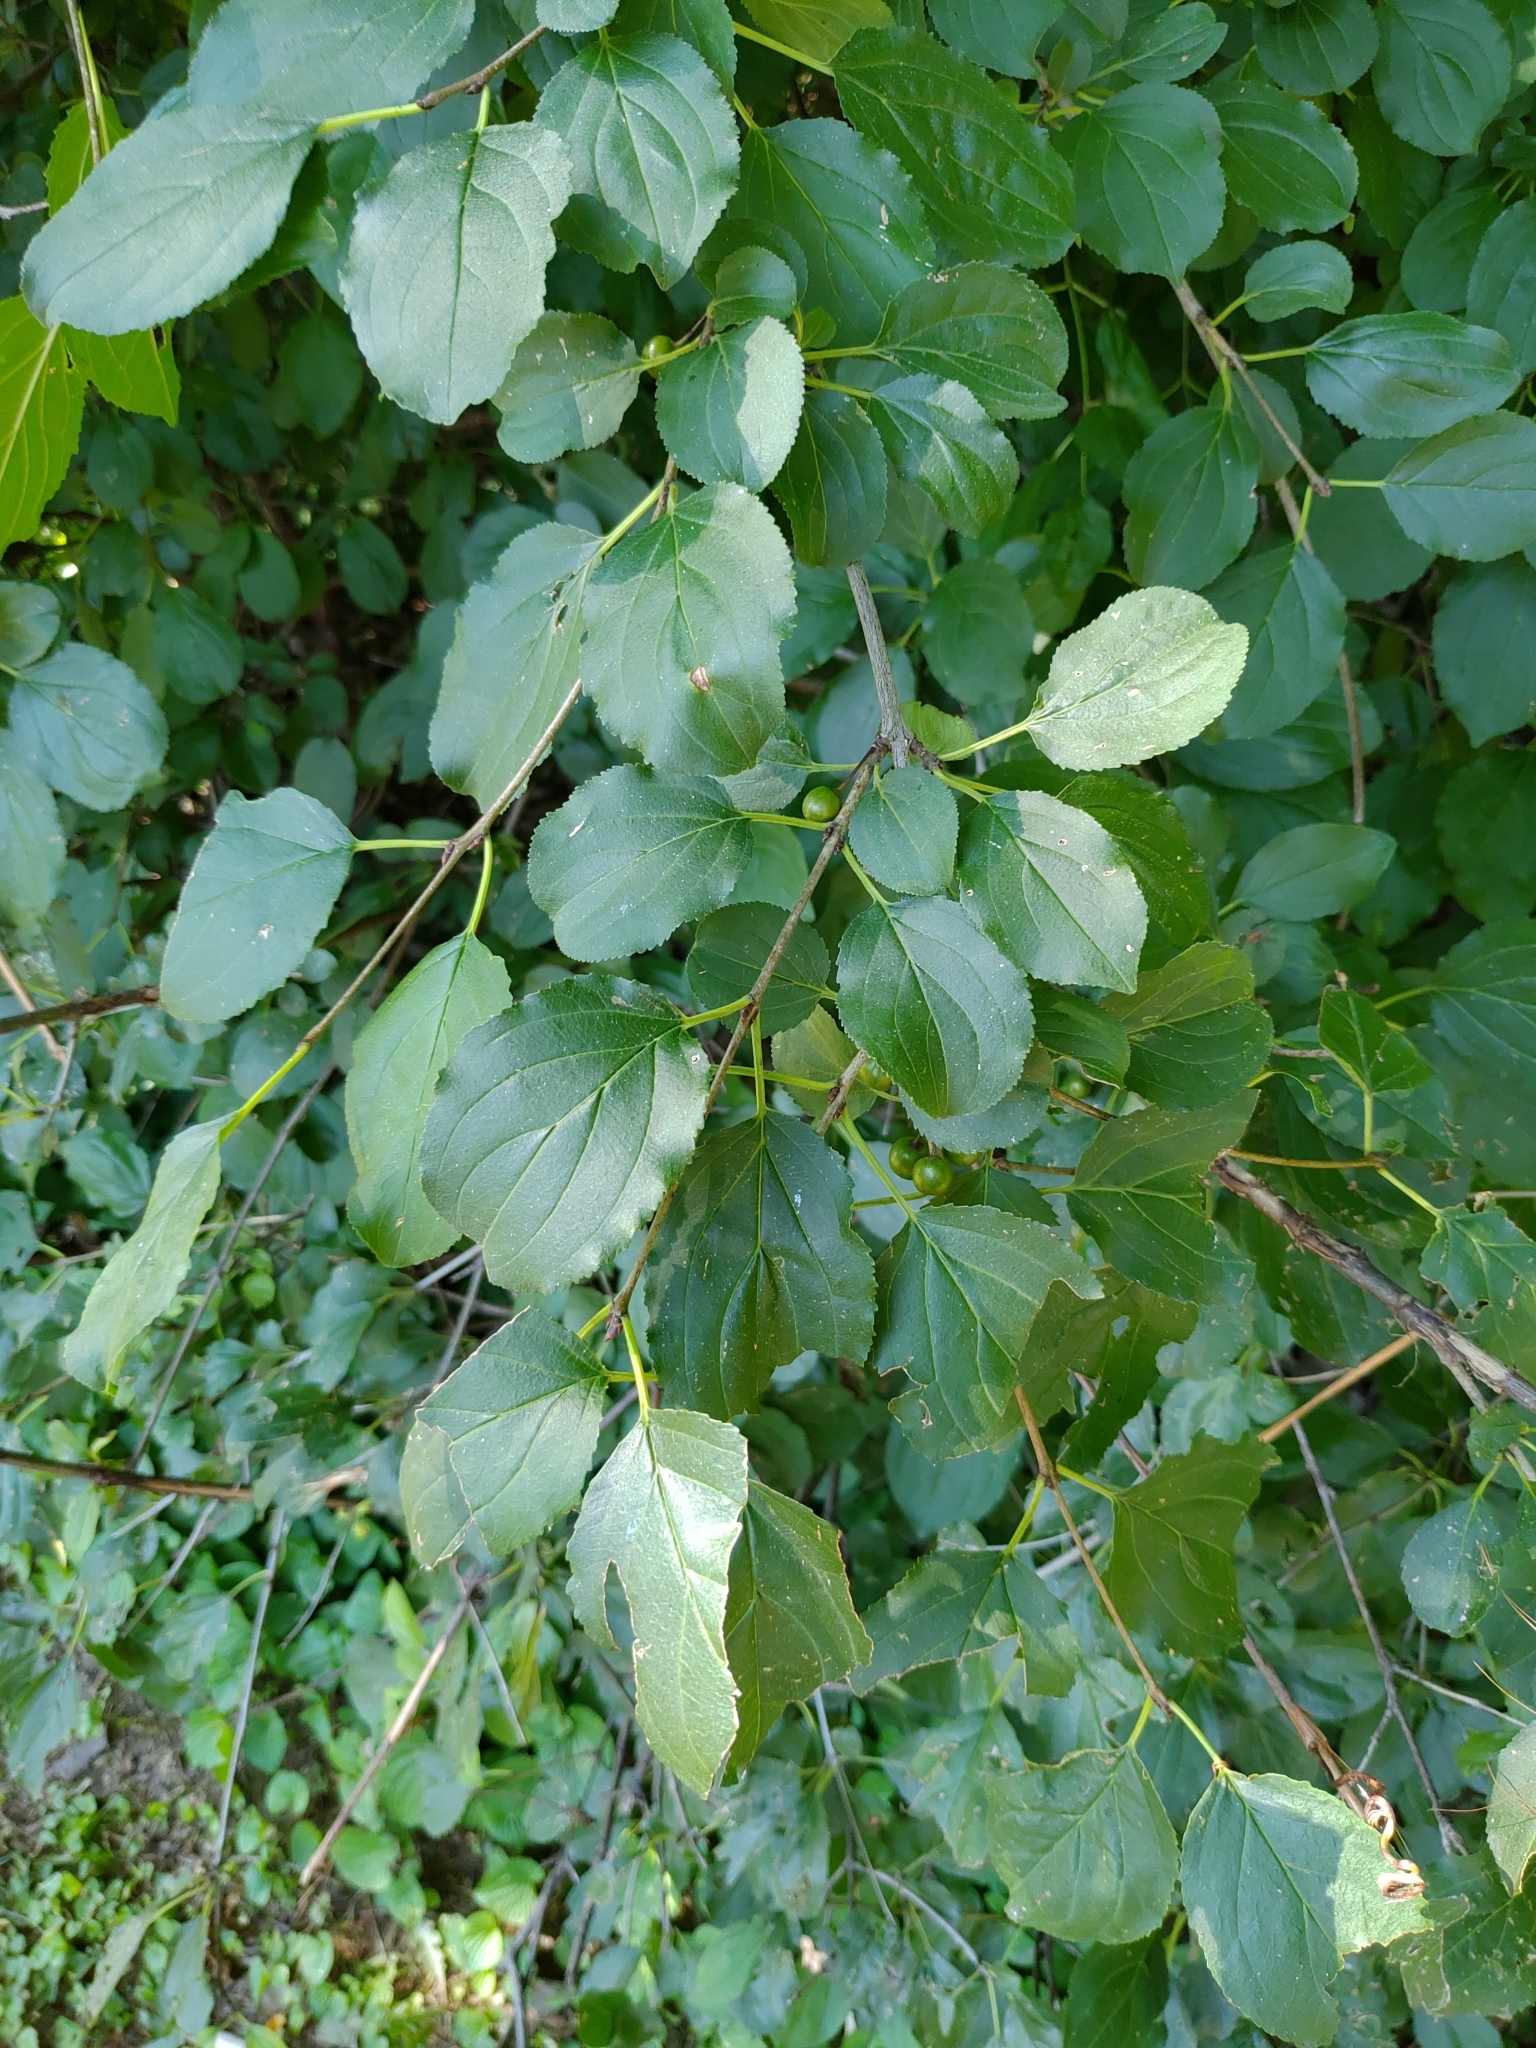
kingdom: Plantae
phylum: Tracheophyta
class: Magnoliopsida
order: Rosales
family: Rhamnaceae
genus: Rhamnus
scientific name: Rhamnus cathartica
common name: Common buckthorn
